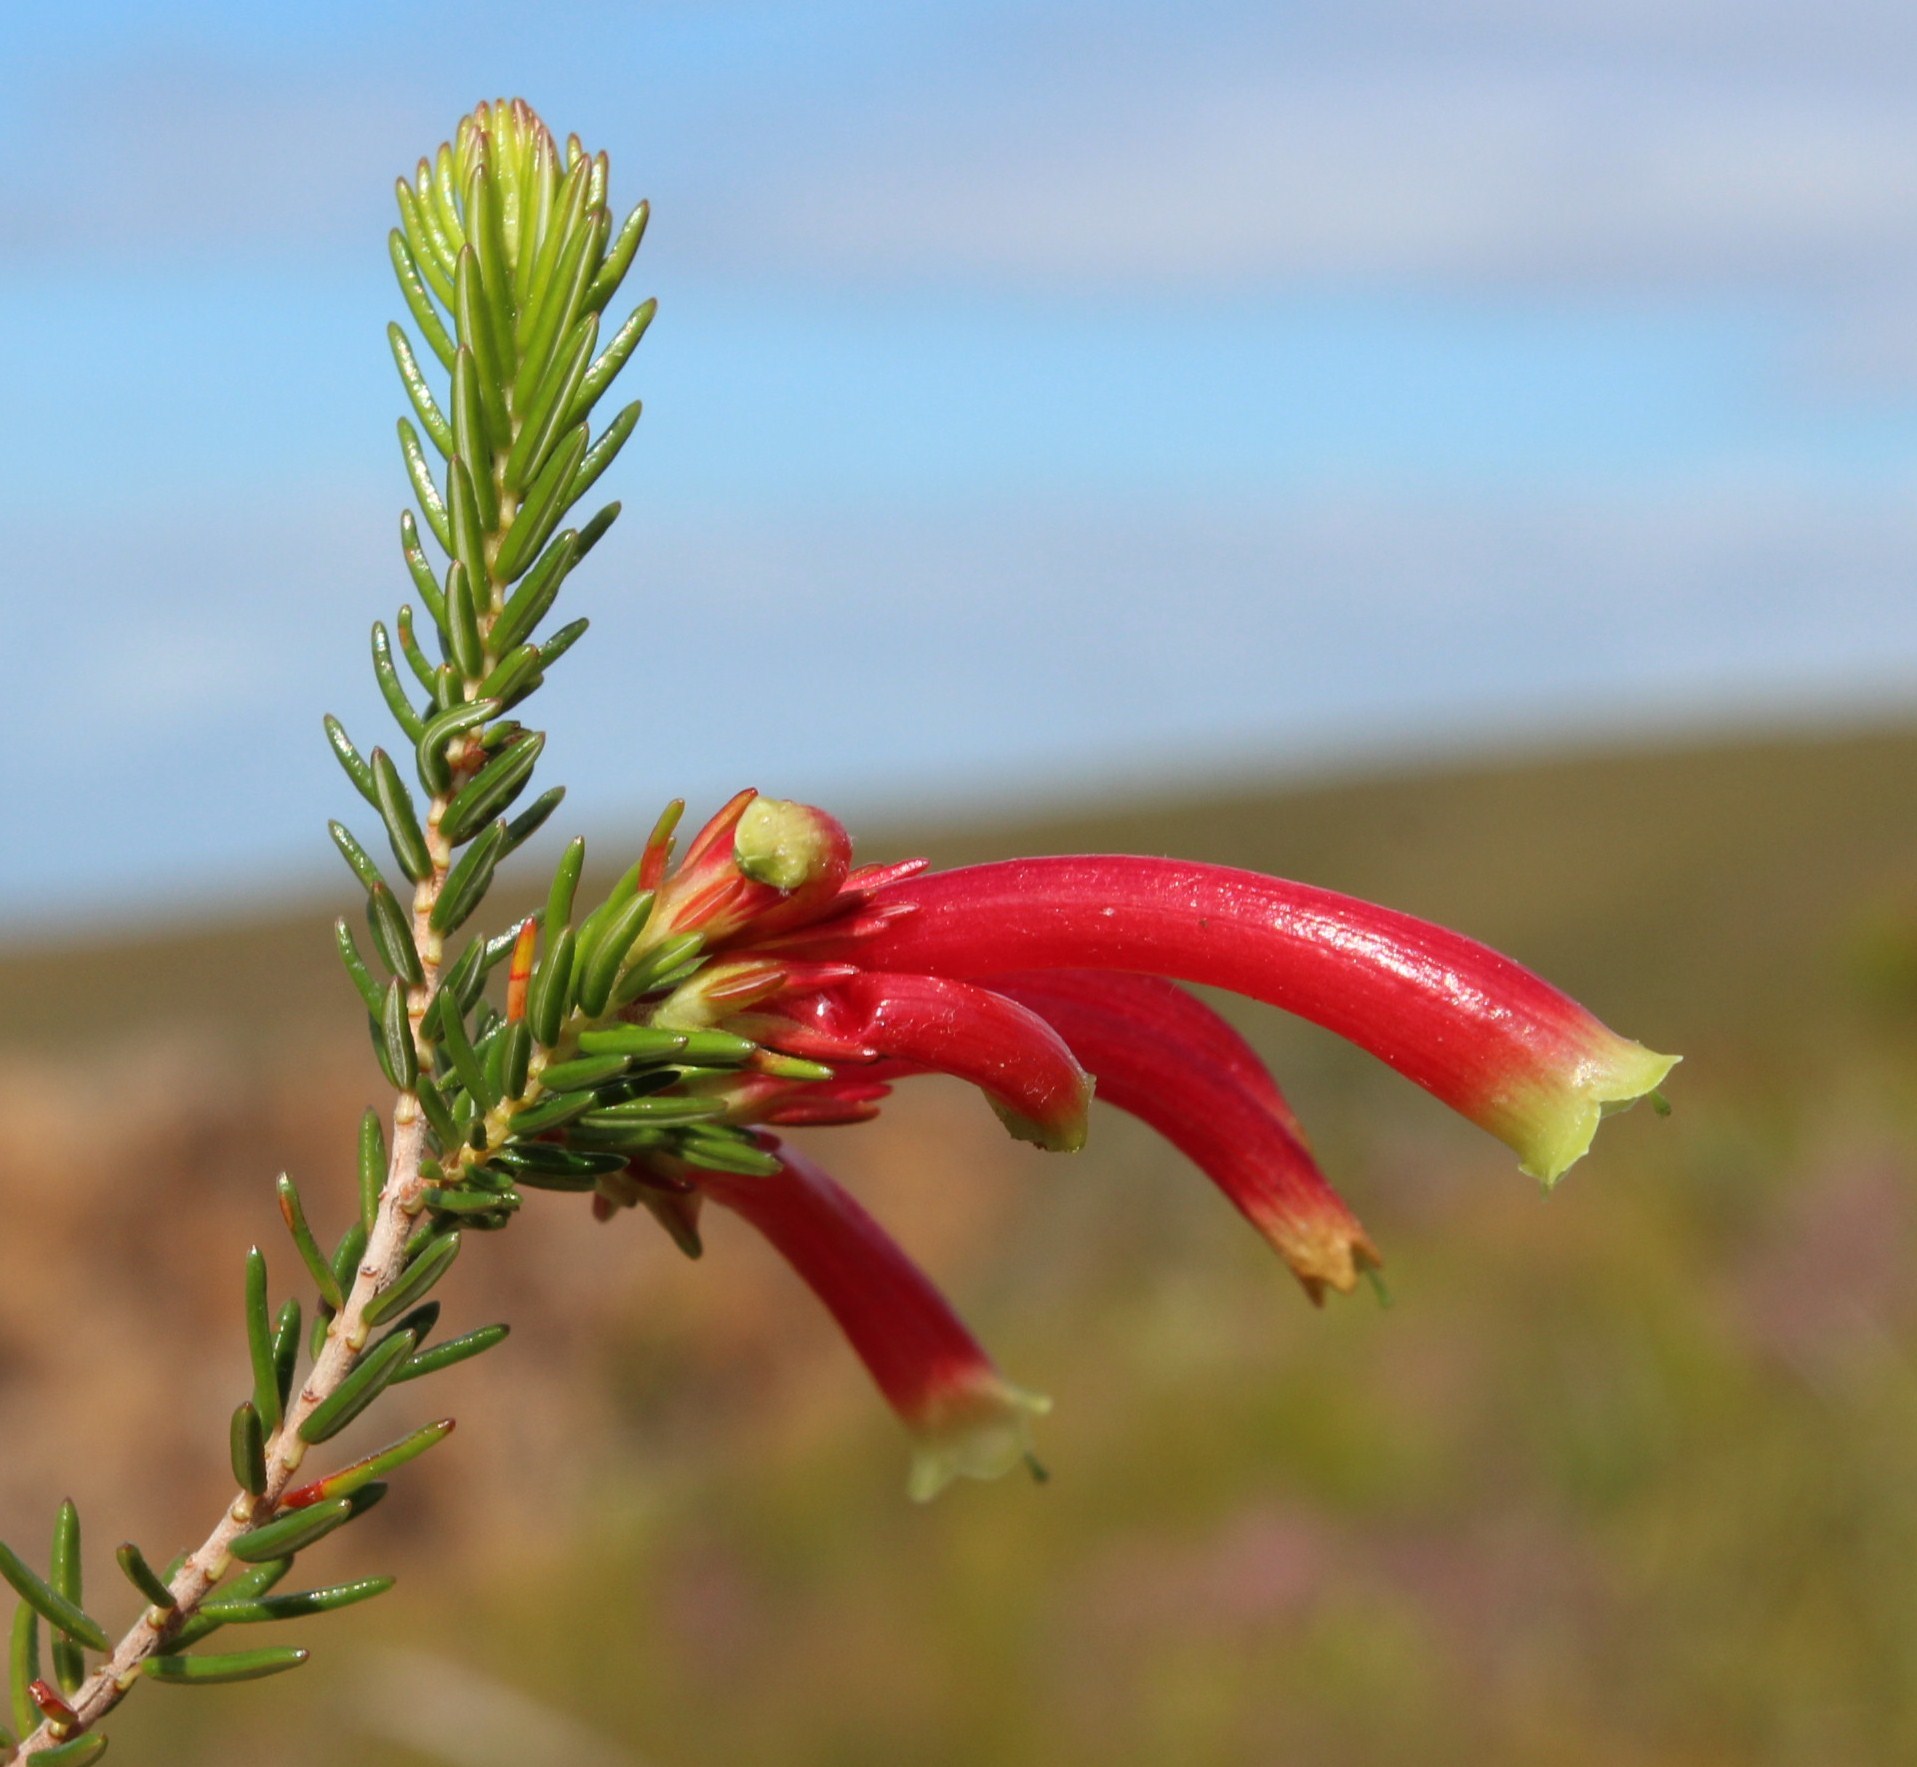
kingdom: Plantae
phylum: Tracheophyta
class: Magnoliopsida
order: Ericales
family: Ericaceae
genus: Erica
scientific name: Erica discolor
